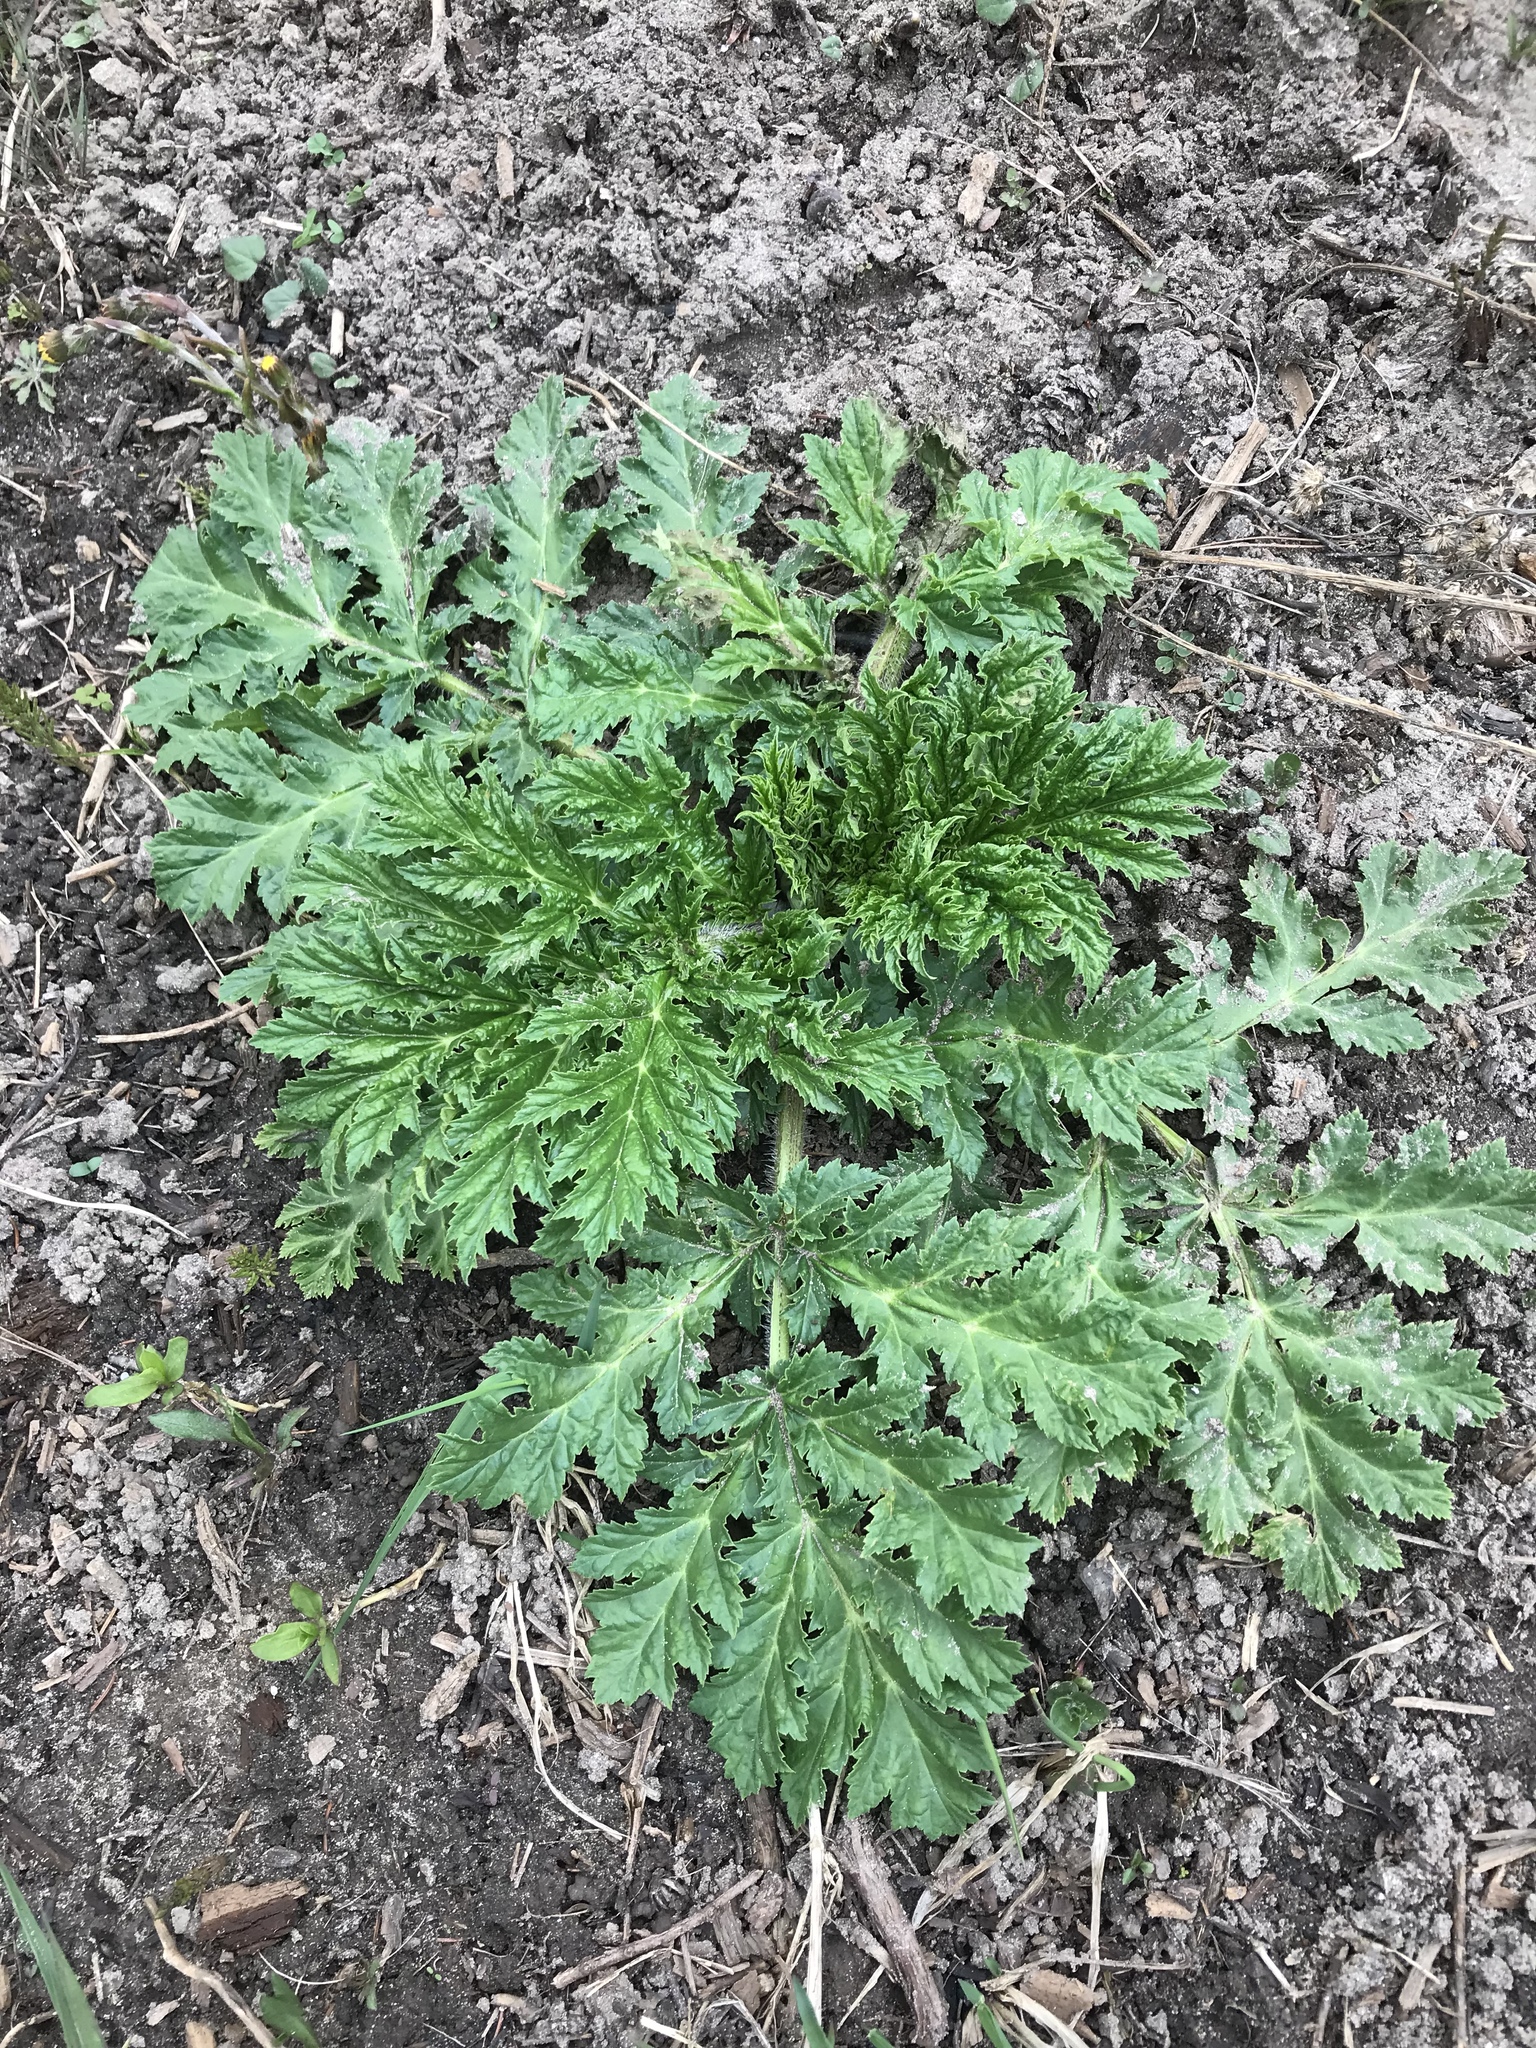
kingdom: Plantae
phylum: Tracheophyta
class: Magnoliopsida
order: Apiales
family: Apiaceae
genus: Heracleum
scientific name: Heracleum mantegazzianum
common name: Giant hogweed
